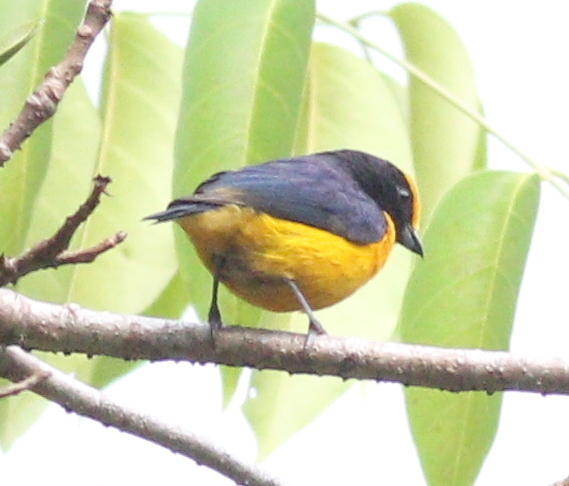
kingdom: Animalia
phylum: Chordata
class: Aves
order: Passeriformes
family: Fringillidae
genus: Euphonia
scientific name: Euphonia xanthogaster
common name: Orange-bellied euphonia
